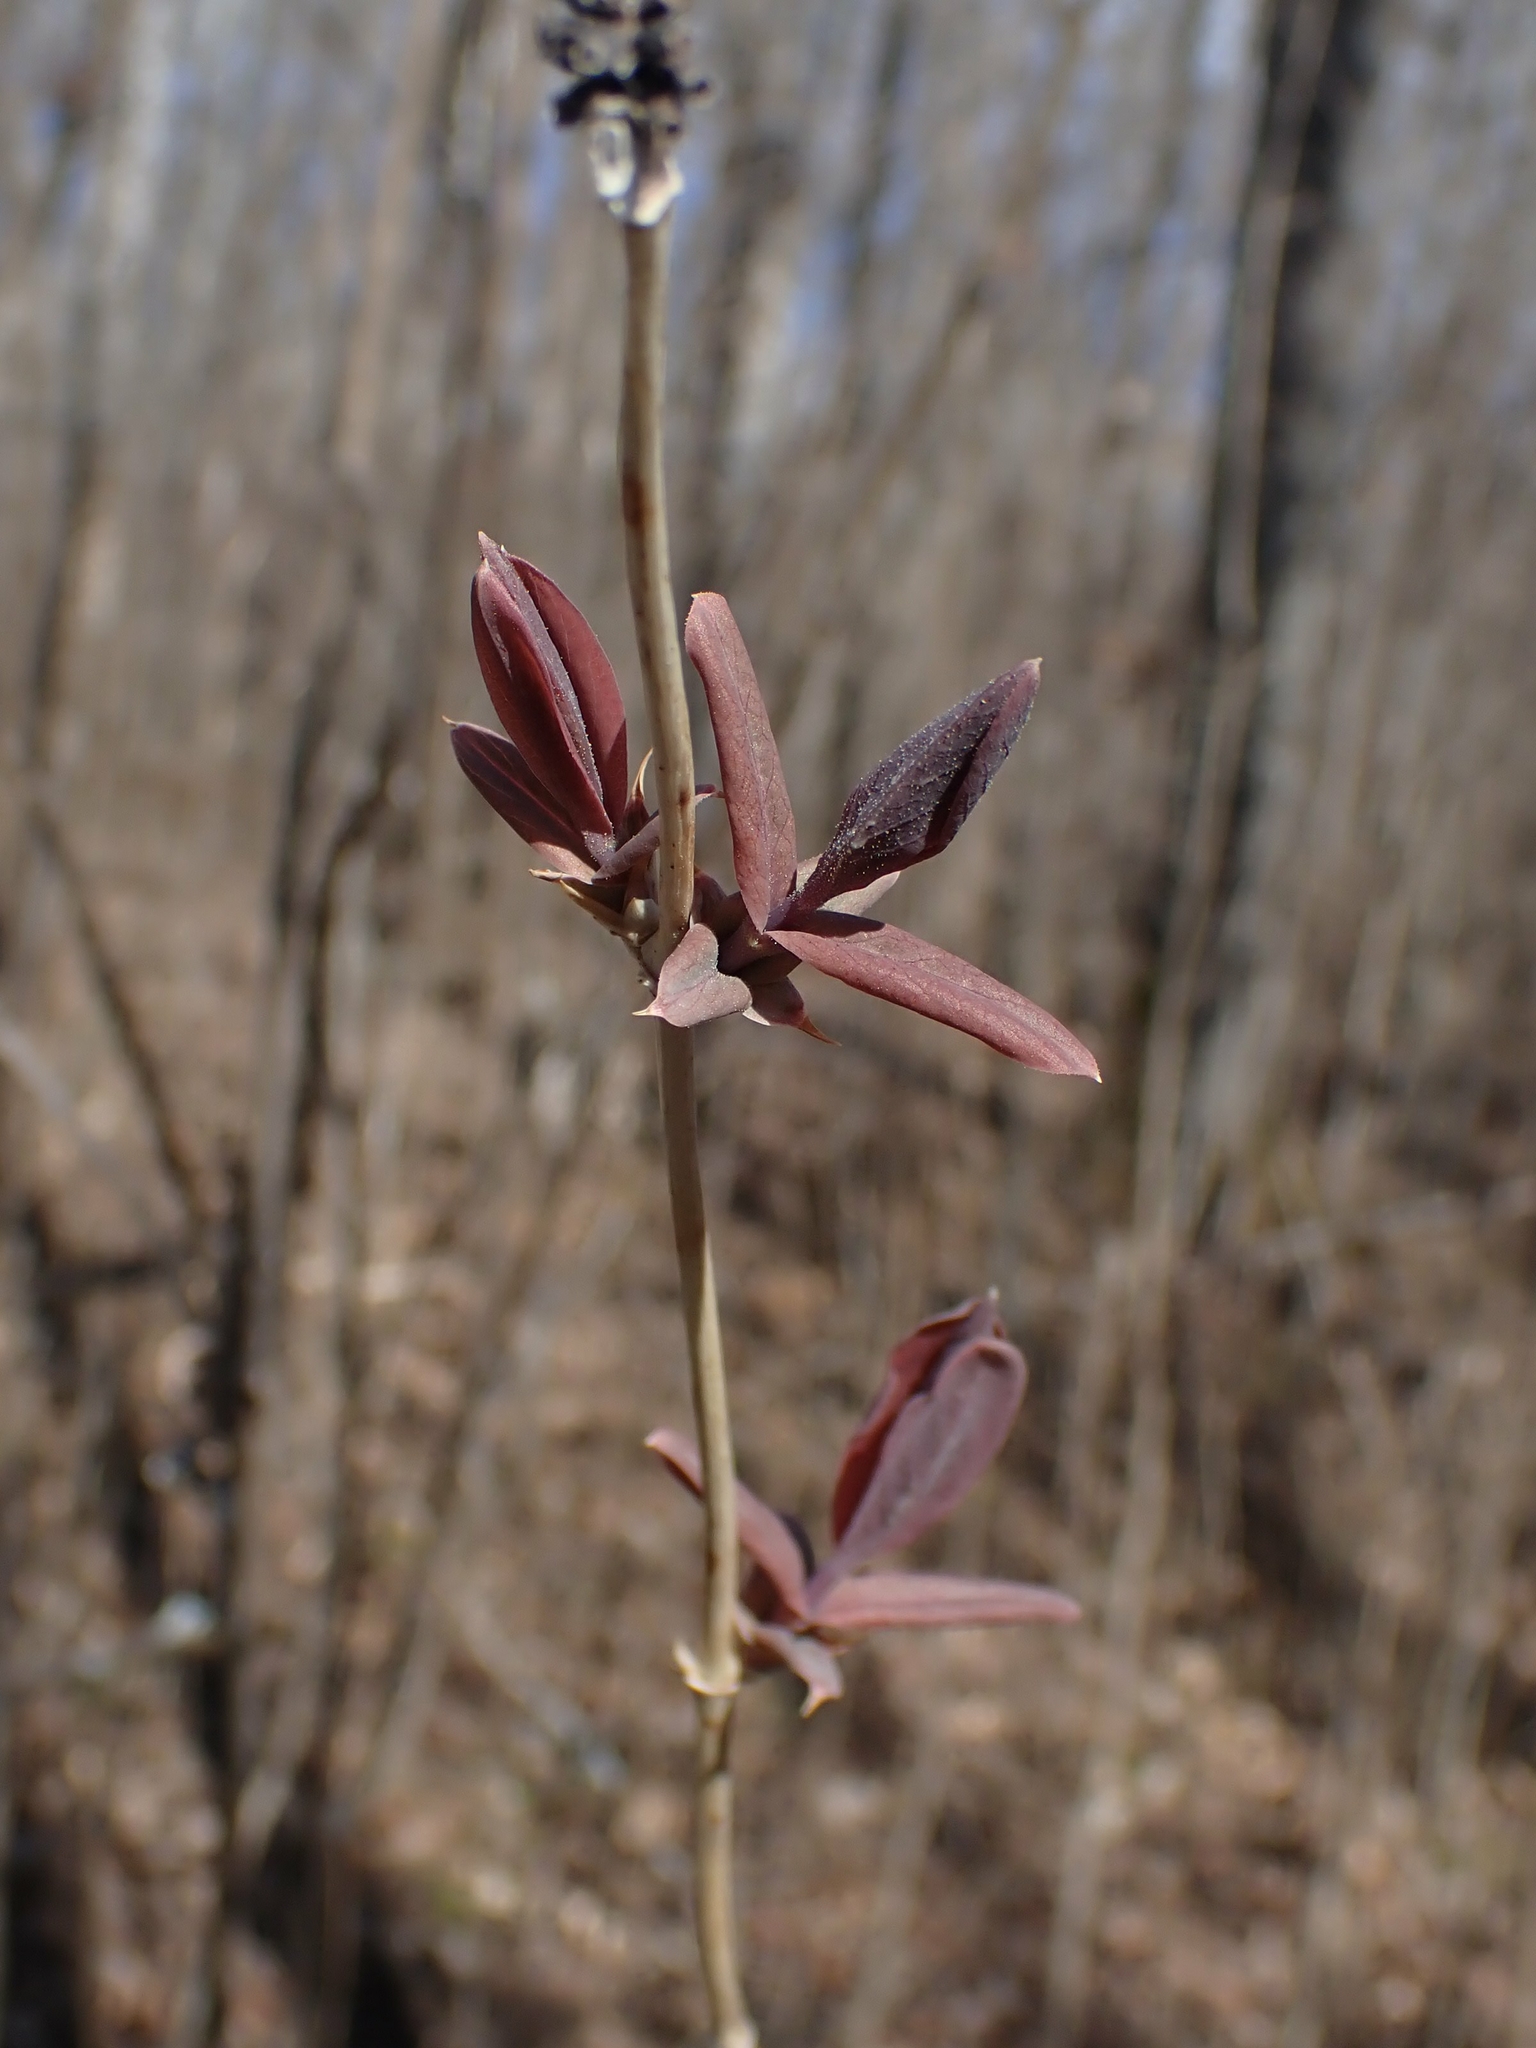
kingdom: Plantae
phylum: Tracheophyta
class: Magnoliopsida
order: Dipsacales
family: Caprifoliaceae
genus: Lonicera
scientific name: Lonicera dioica
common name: Limber honeysuckle
